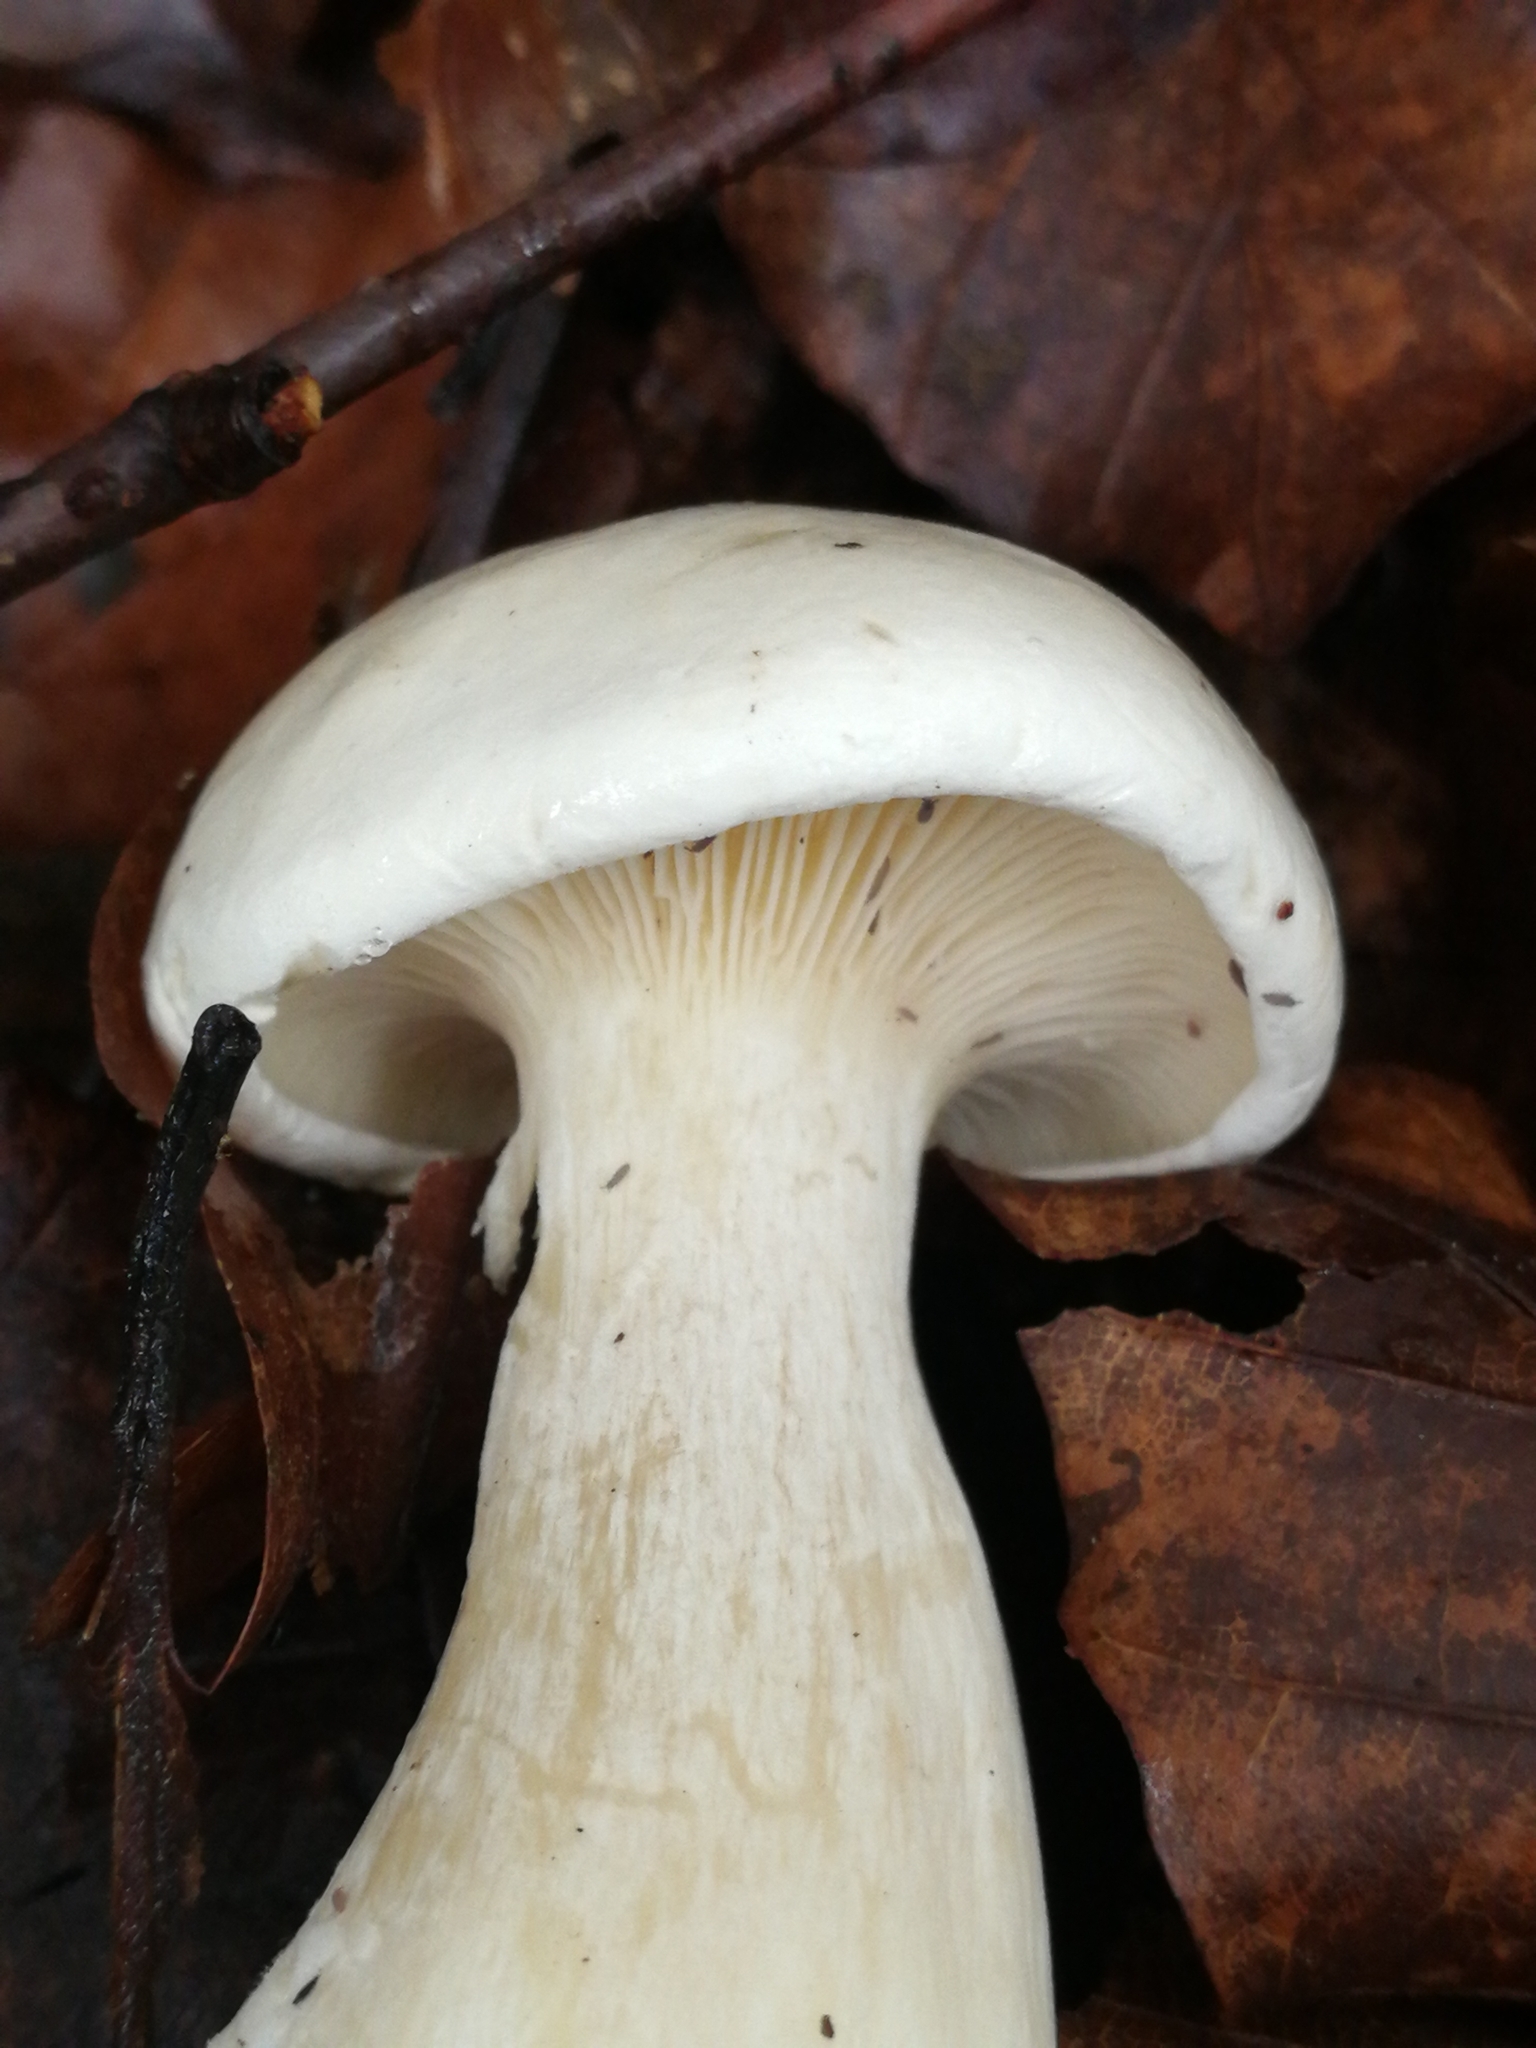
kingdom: Fungi
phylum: Basidiomycota
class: Agaricomycetes
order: Agaricales
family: Tricholomataceae
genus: Clitocybe
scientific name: Clitocybe nebularis
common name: Clouded agaric
